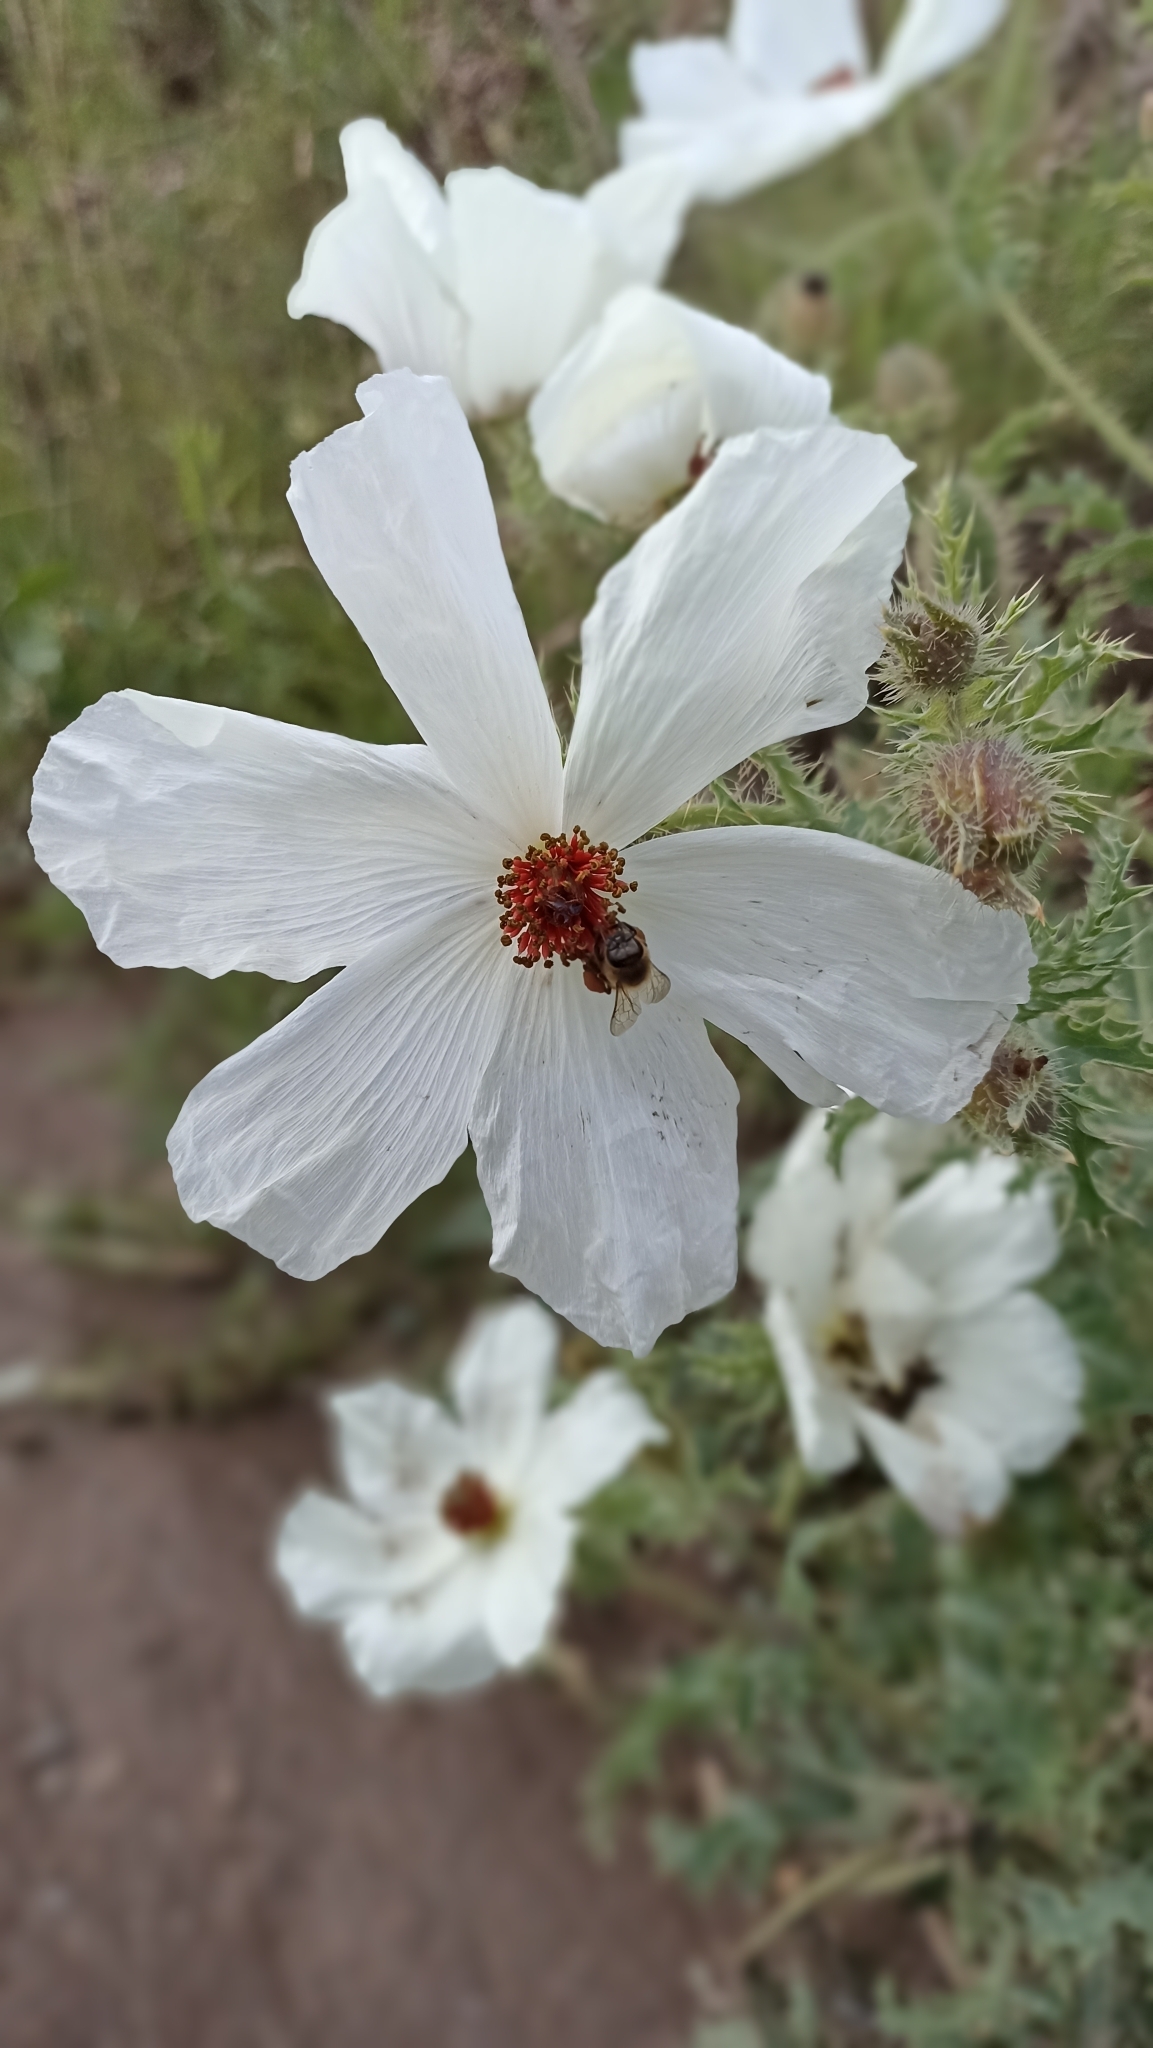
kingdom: Plantae
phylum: Tracheophyta
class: Magnoliopsida
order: Ranunculales
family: Papaveraceae
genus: Argemone
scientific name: Argemone platyceras
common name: Crested-poppy
